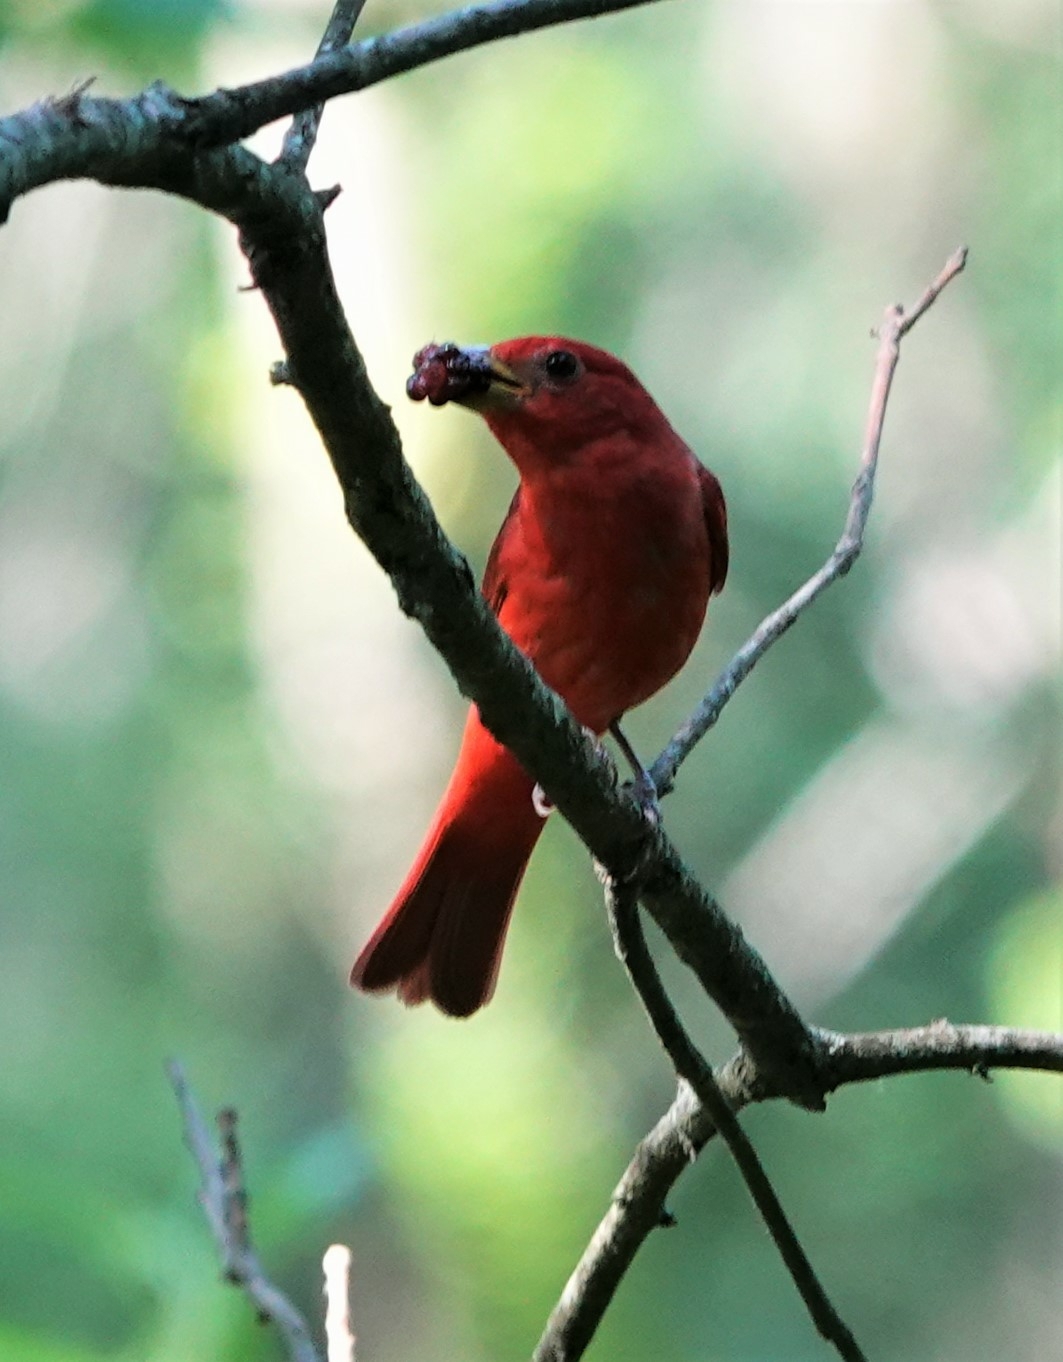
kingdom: Animalia
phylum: Chordata
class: Aves
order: Passeriformes
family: Cardinalidae
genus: Piranga
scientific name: Piranga rubra
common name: Summer tanager
